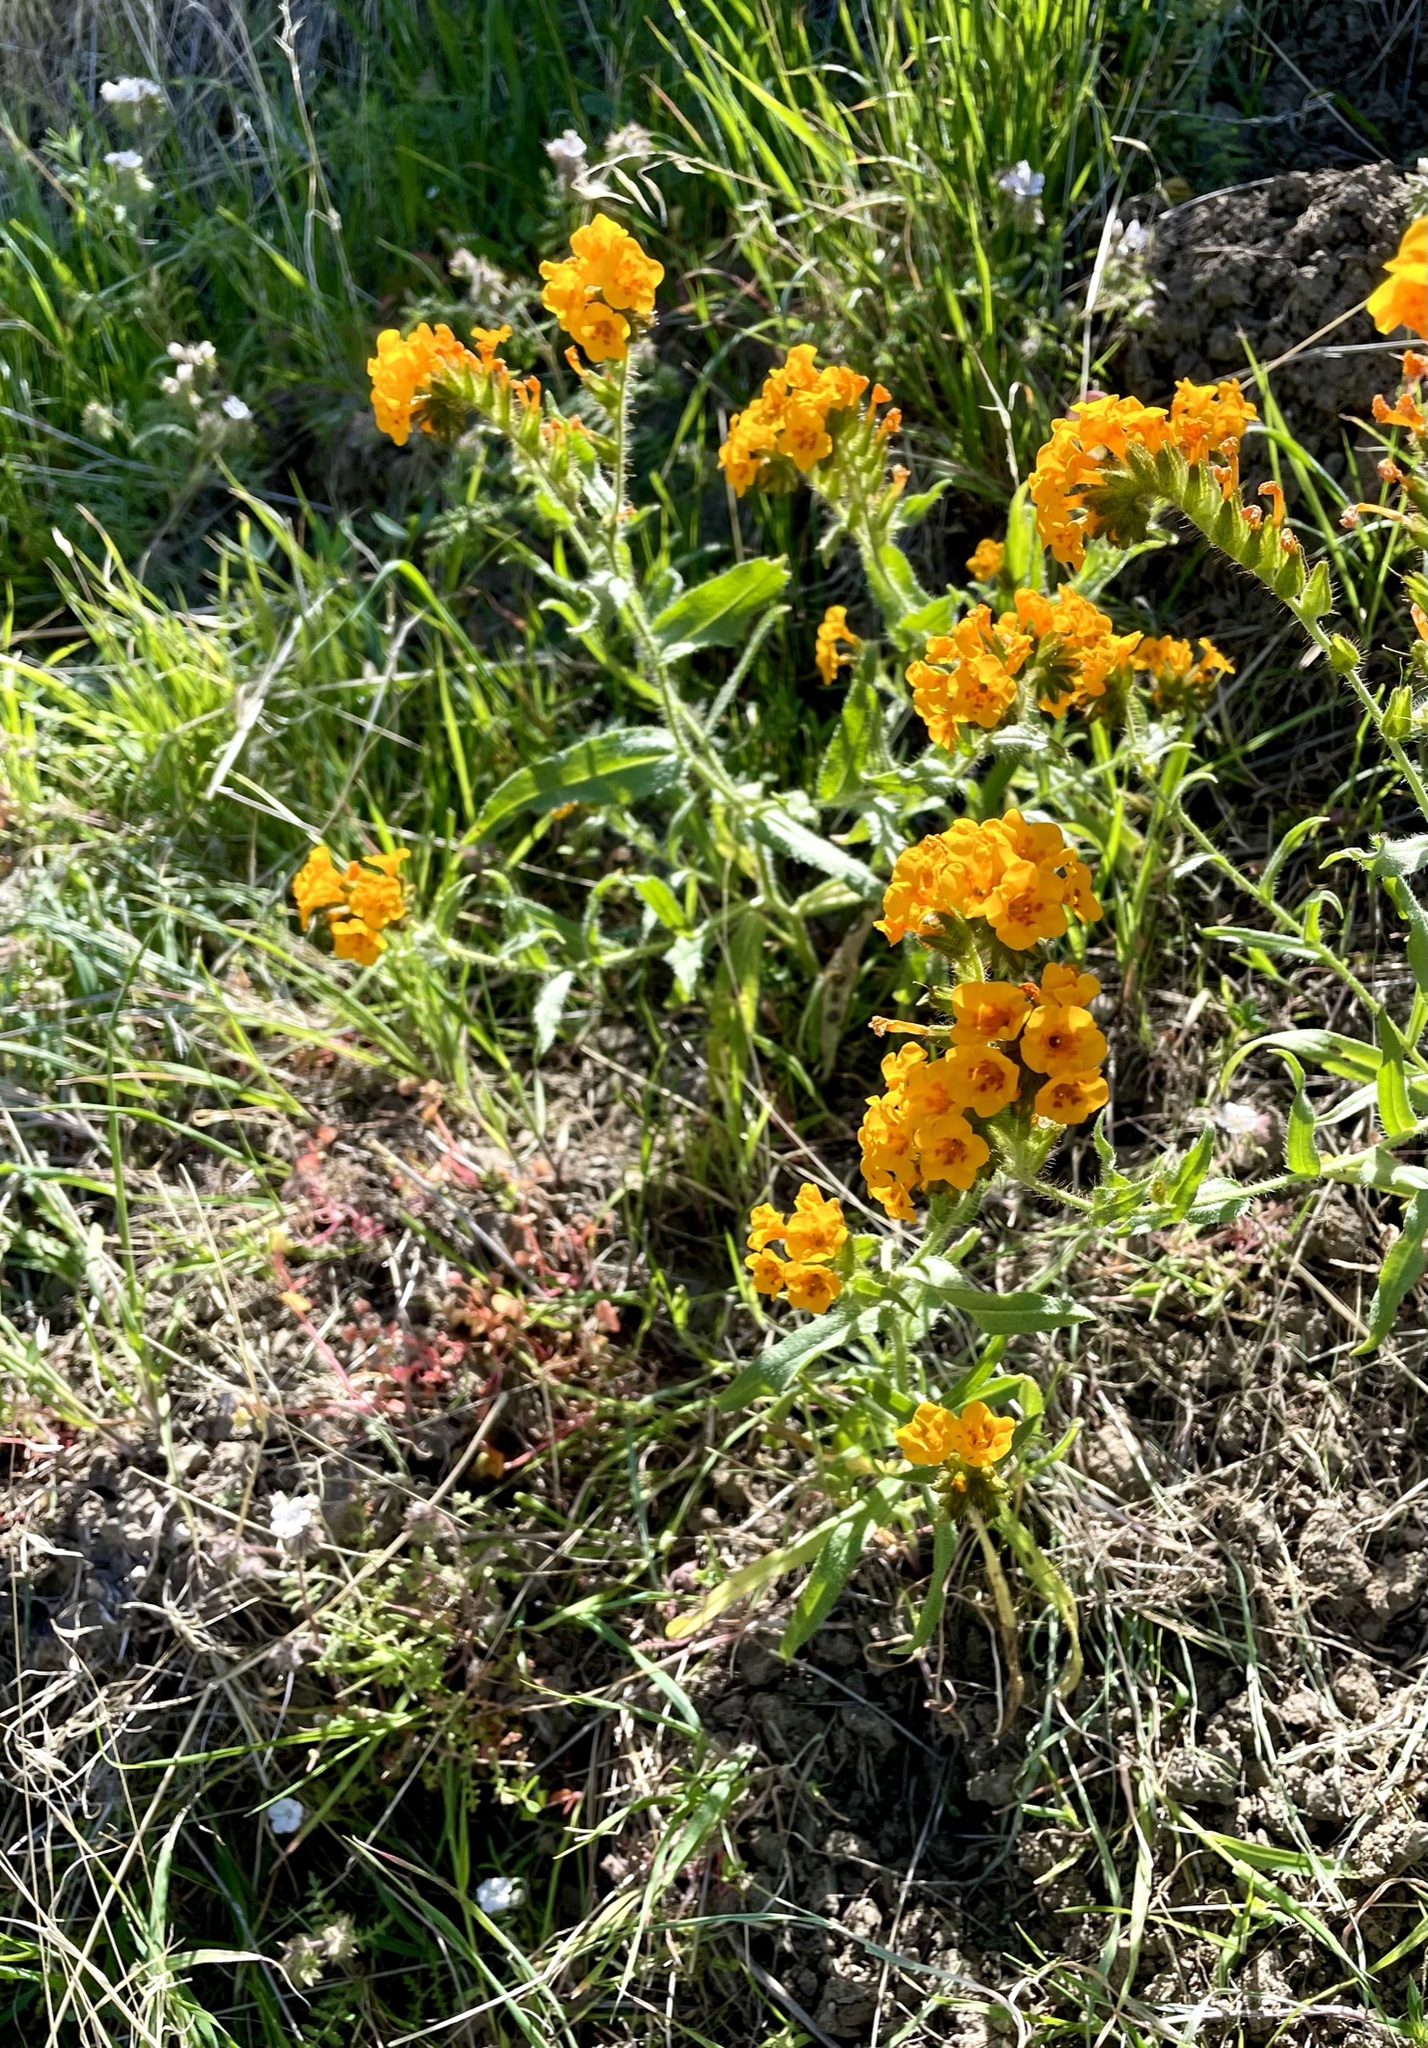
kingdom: Plantae
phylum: Tracheophyta
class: Magnoliopsida
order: Boraginales
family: Boraginaceae
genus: Amsinckia
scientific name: Amsinckia grandiflora
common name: Large-flower fiddleneck
